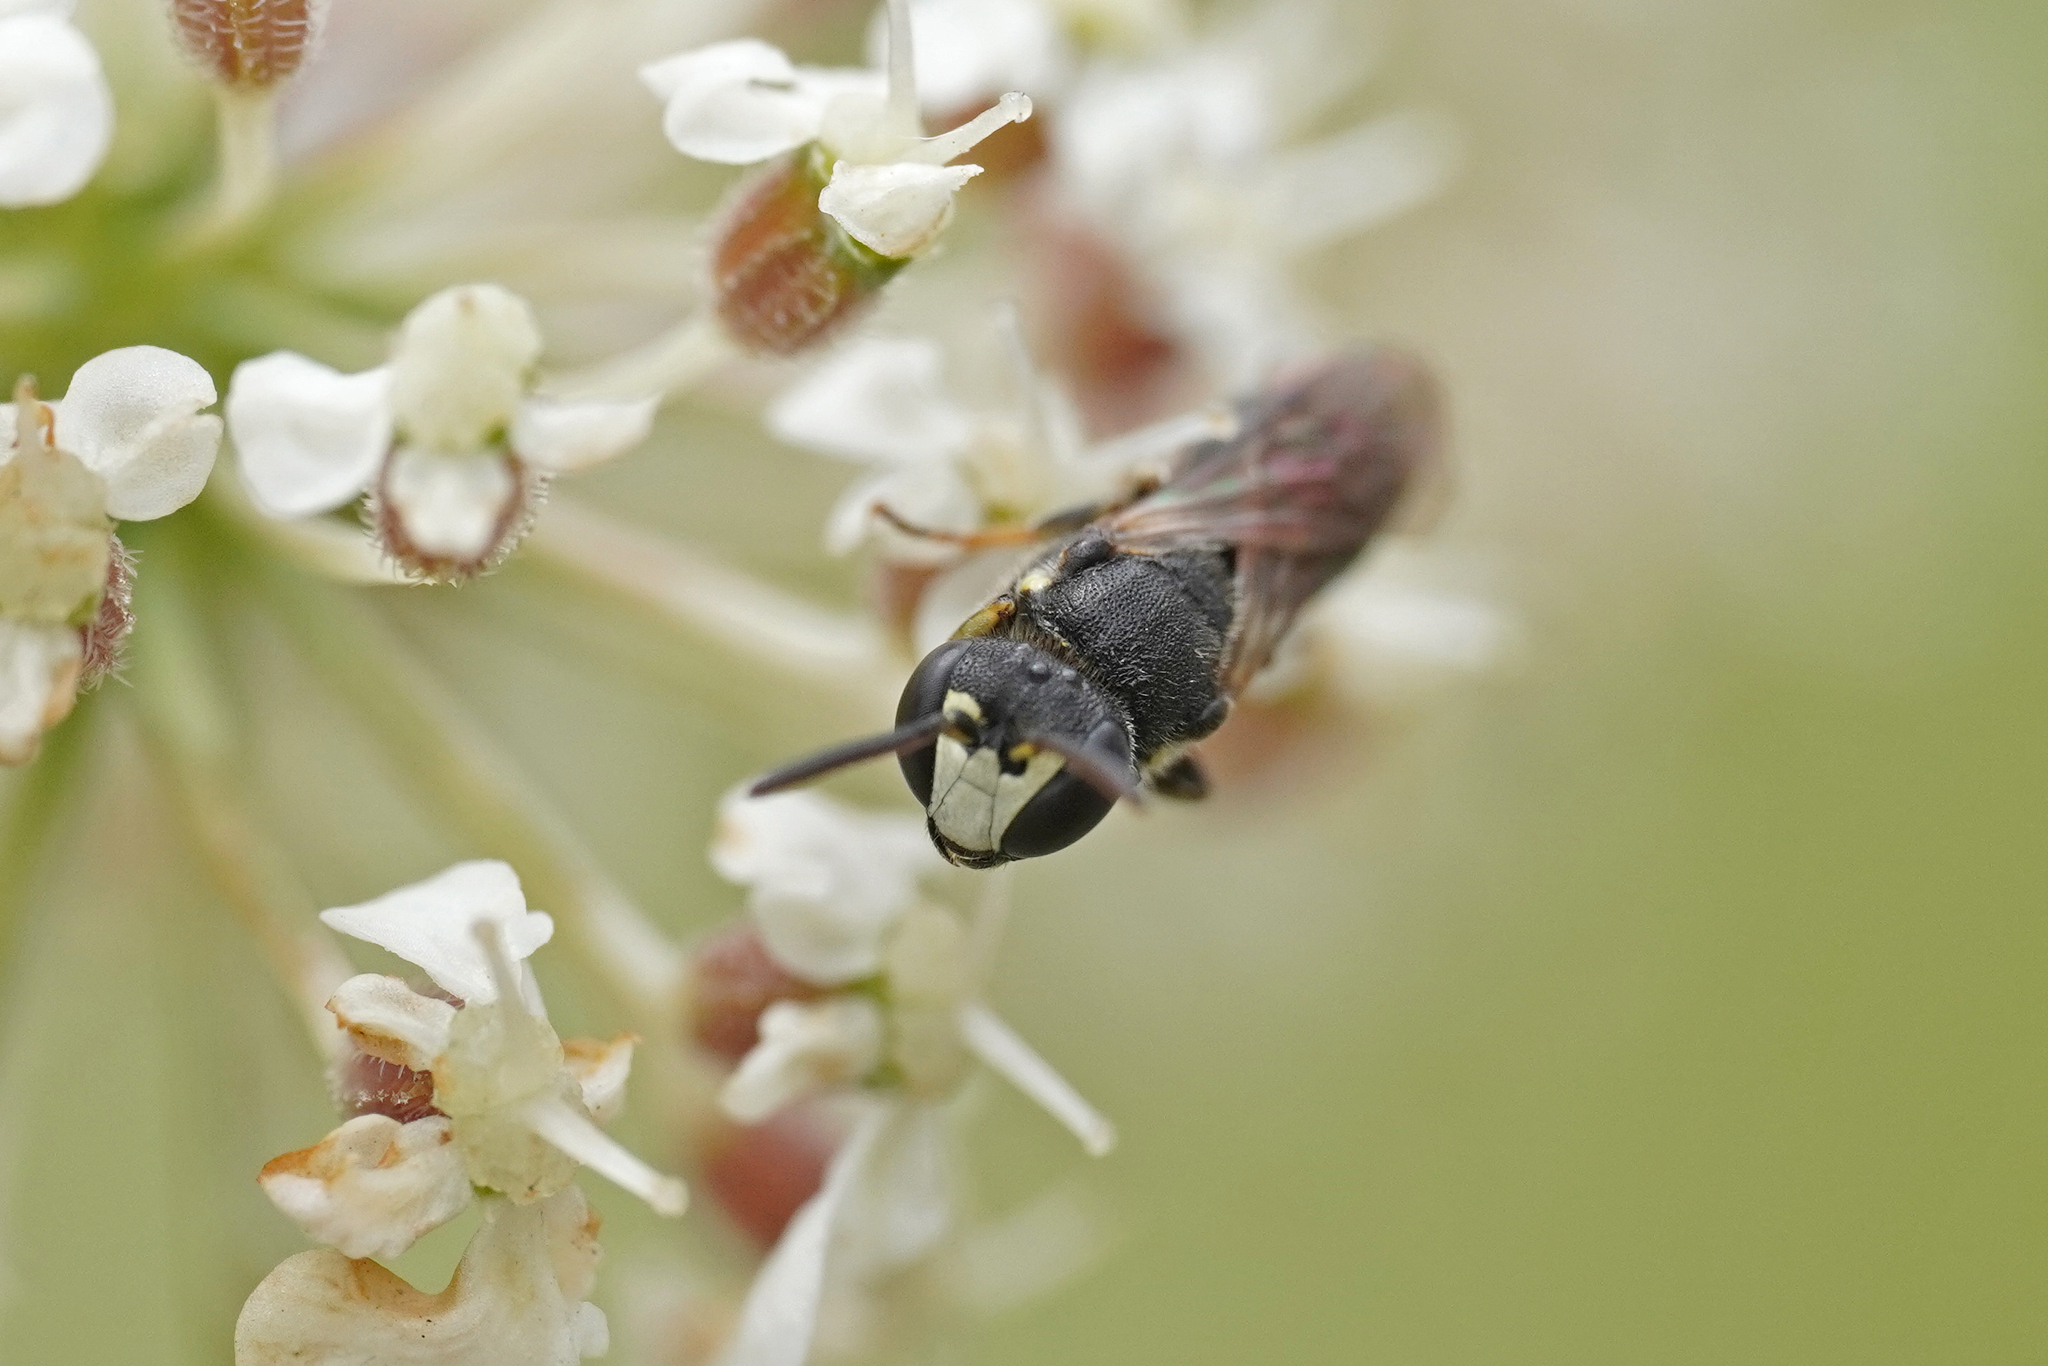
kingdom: Animalia
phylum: Arthropoda
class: Insecta
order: Hymenoptera
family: Colletidae
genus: Hylaeus
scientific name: Hylaeus sinuatus
